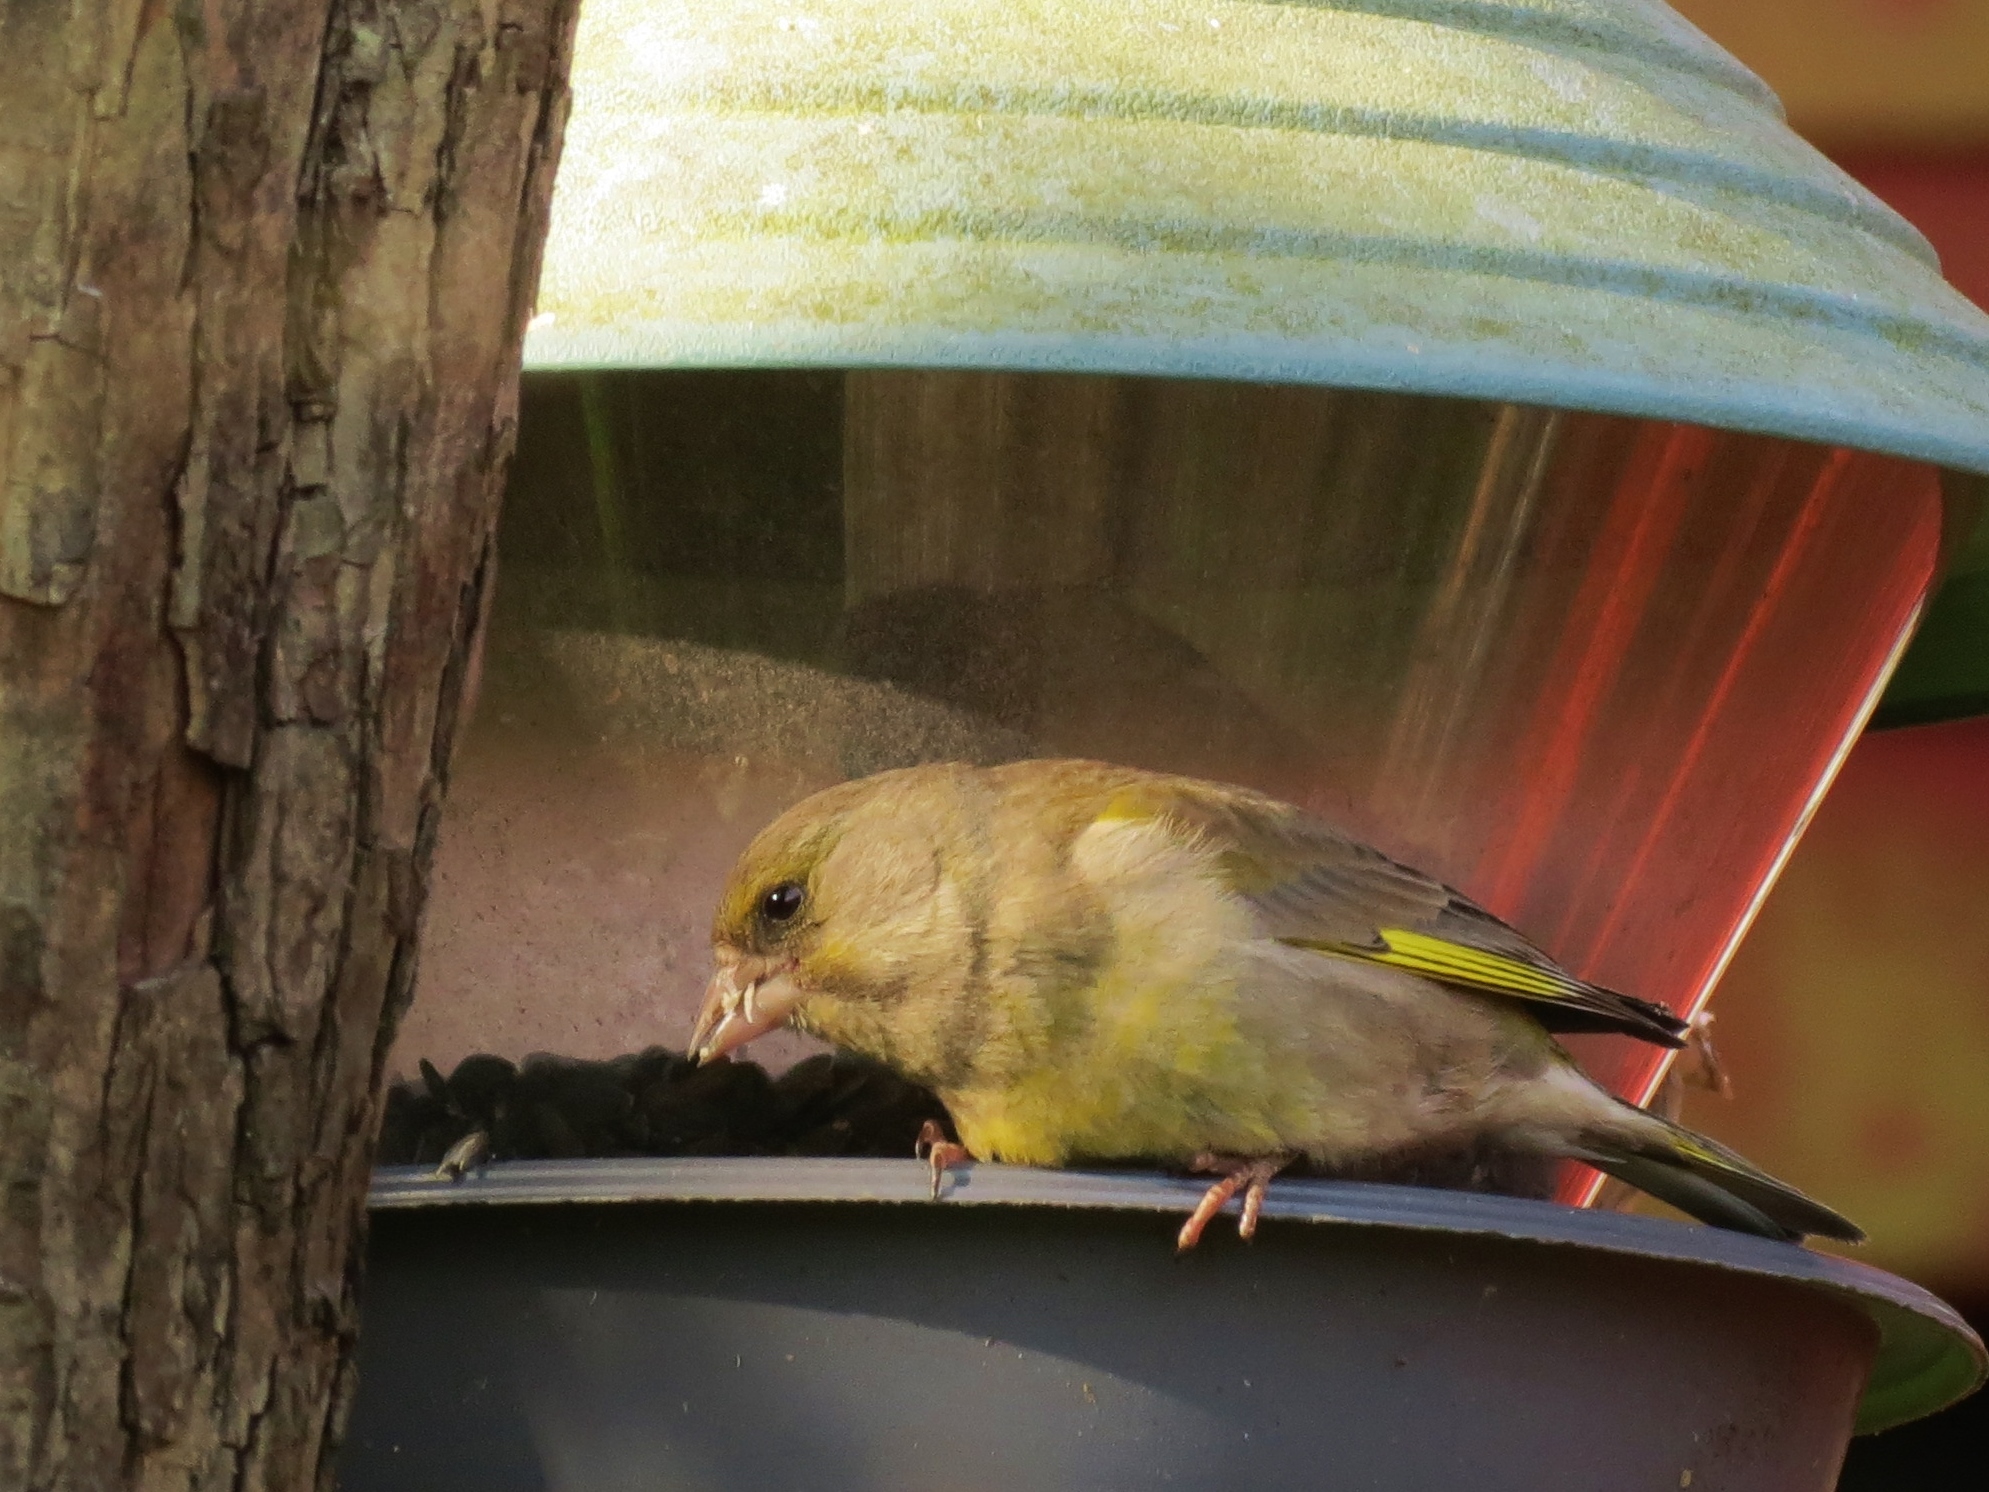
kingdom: Plantae
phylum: Tracheophyta
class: Liliopsida
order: Poales
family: Poaceae
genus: Chloris
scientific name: Chloris chloris
